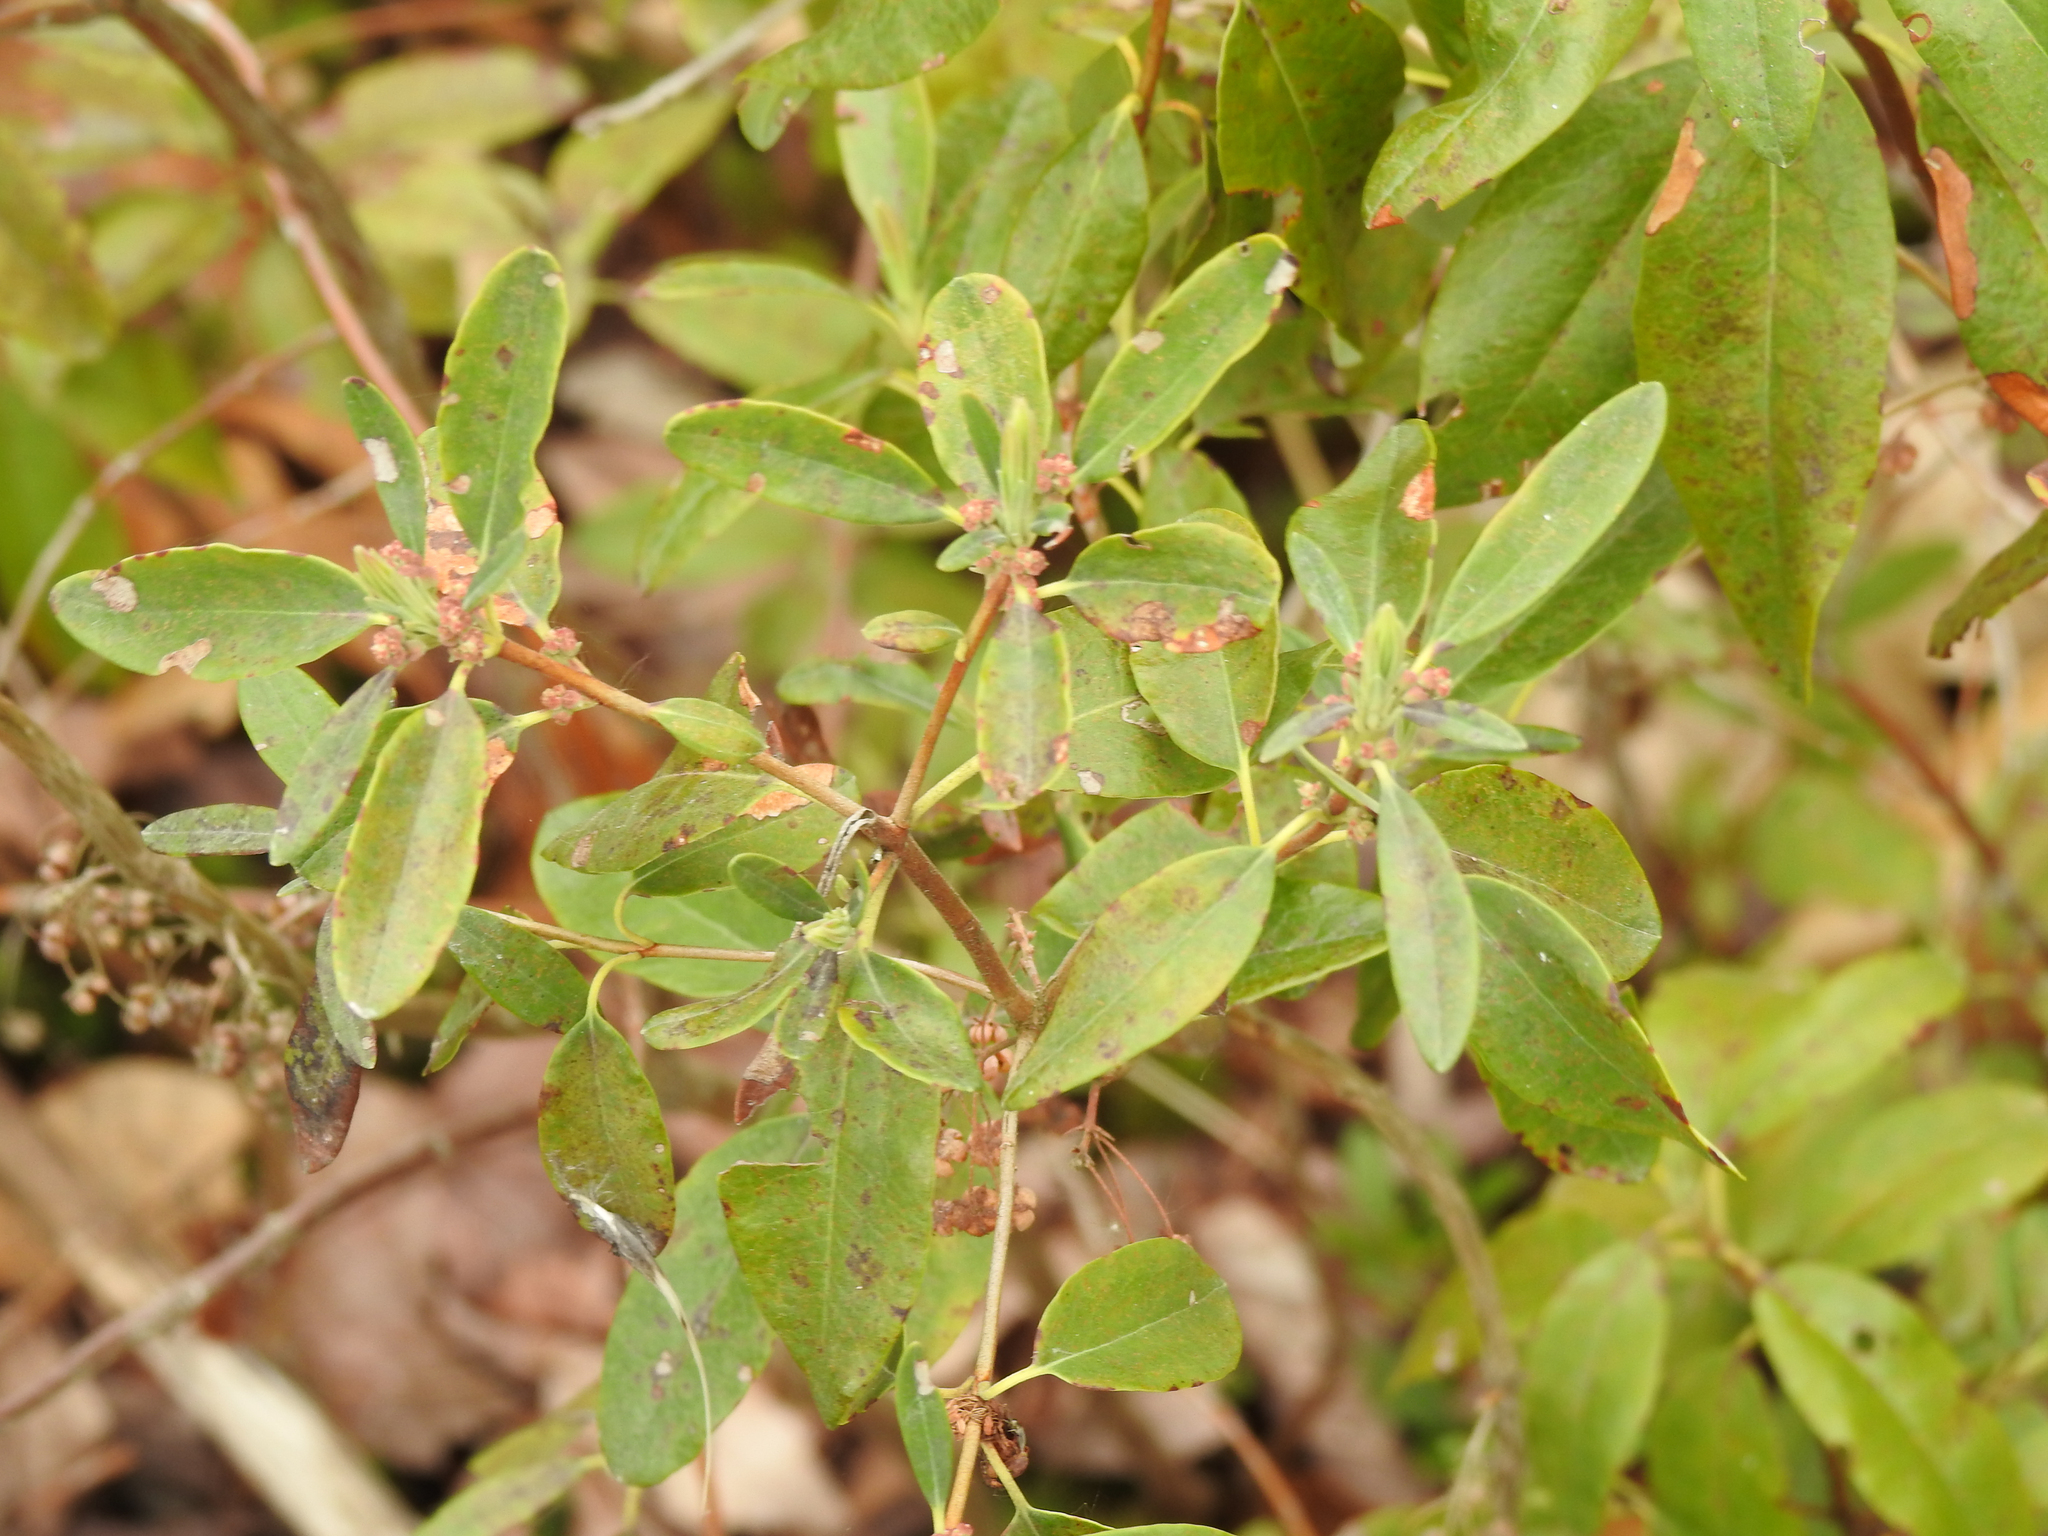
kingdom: Plantae
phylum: Tracheophyta
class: Magnoliopsida
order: Ericales
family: Ericaceae
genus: Kalmia
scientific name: Kalmia angustifolia
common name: Sheep-laurel
